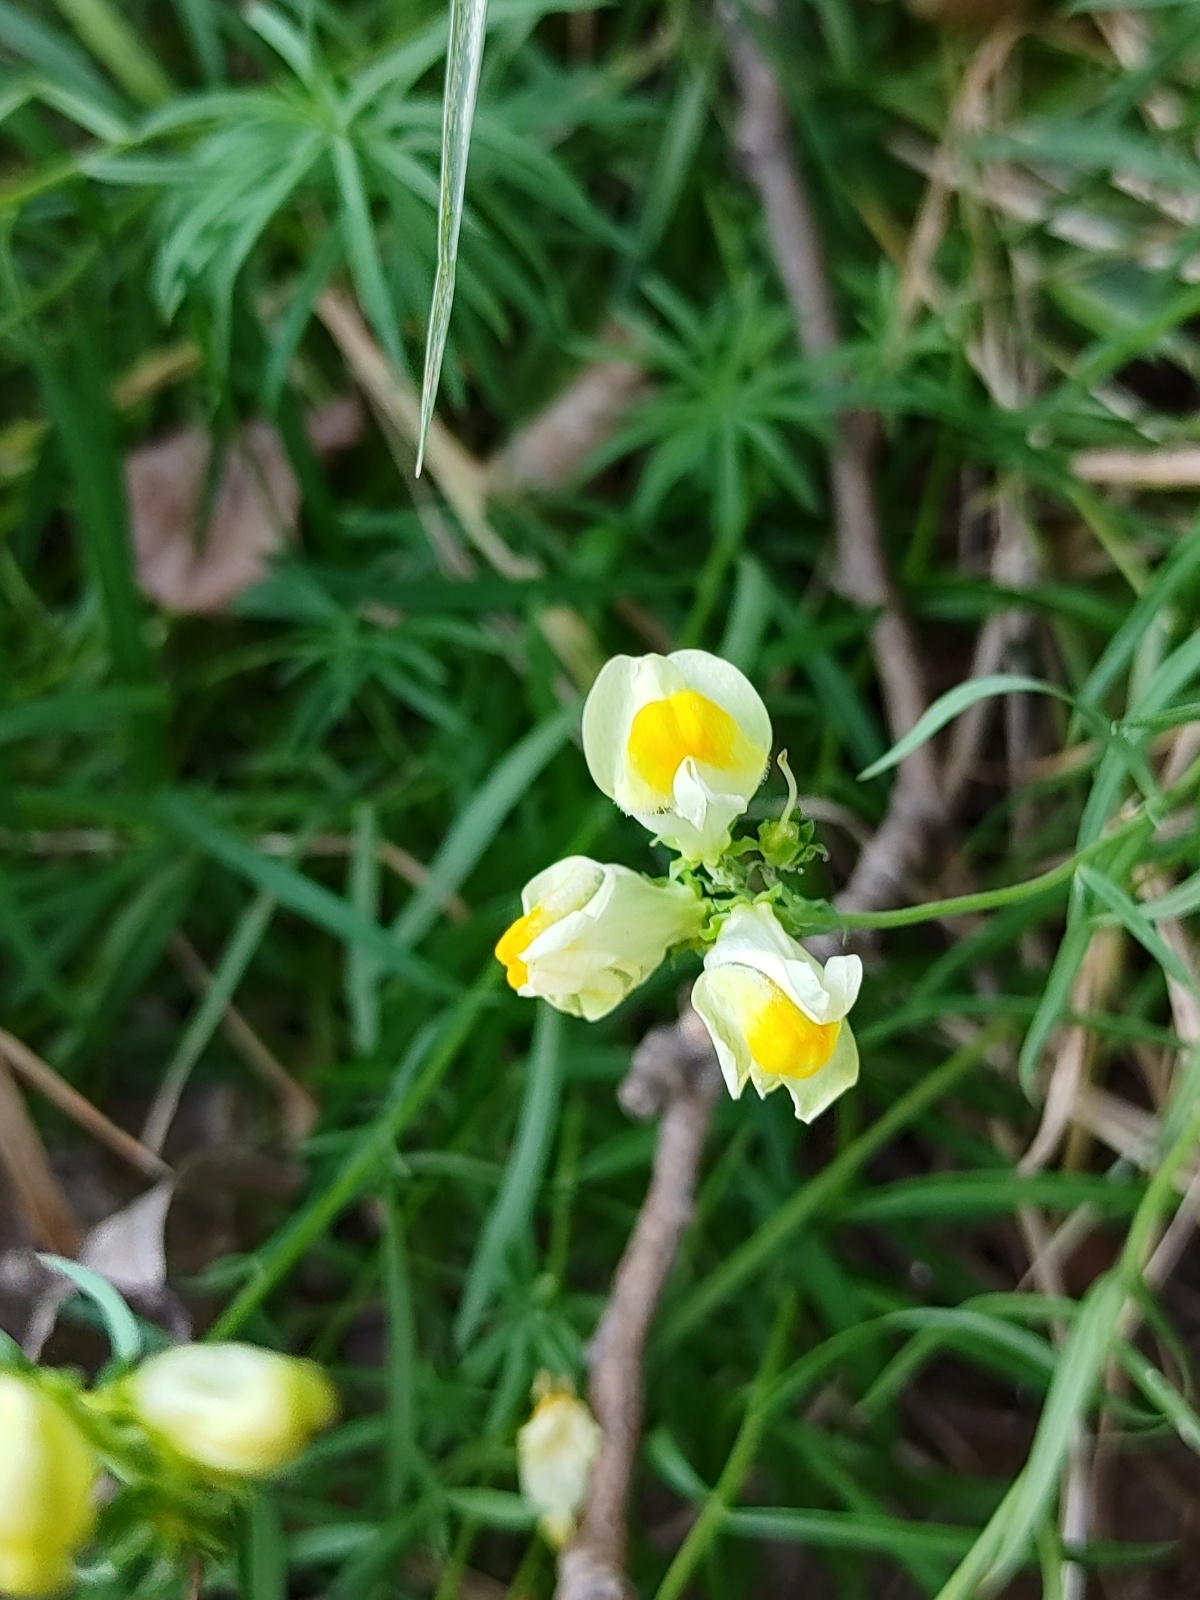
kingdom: Plantae
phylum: Tracheophyta
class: Magnoliopsida
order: Lamiales
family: Plantaginaceae
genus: Linaria
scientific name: Linaria vulgaris
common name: Butter and eggs
